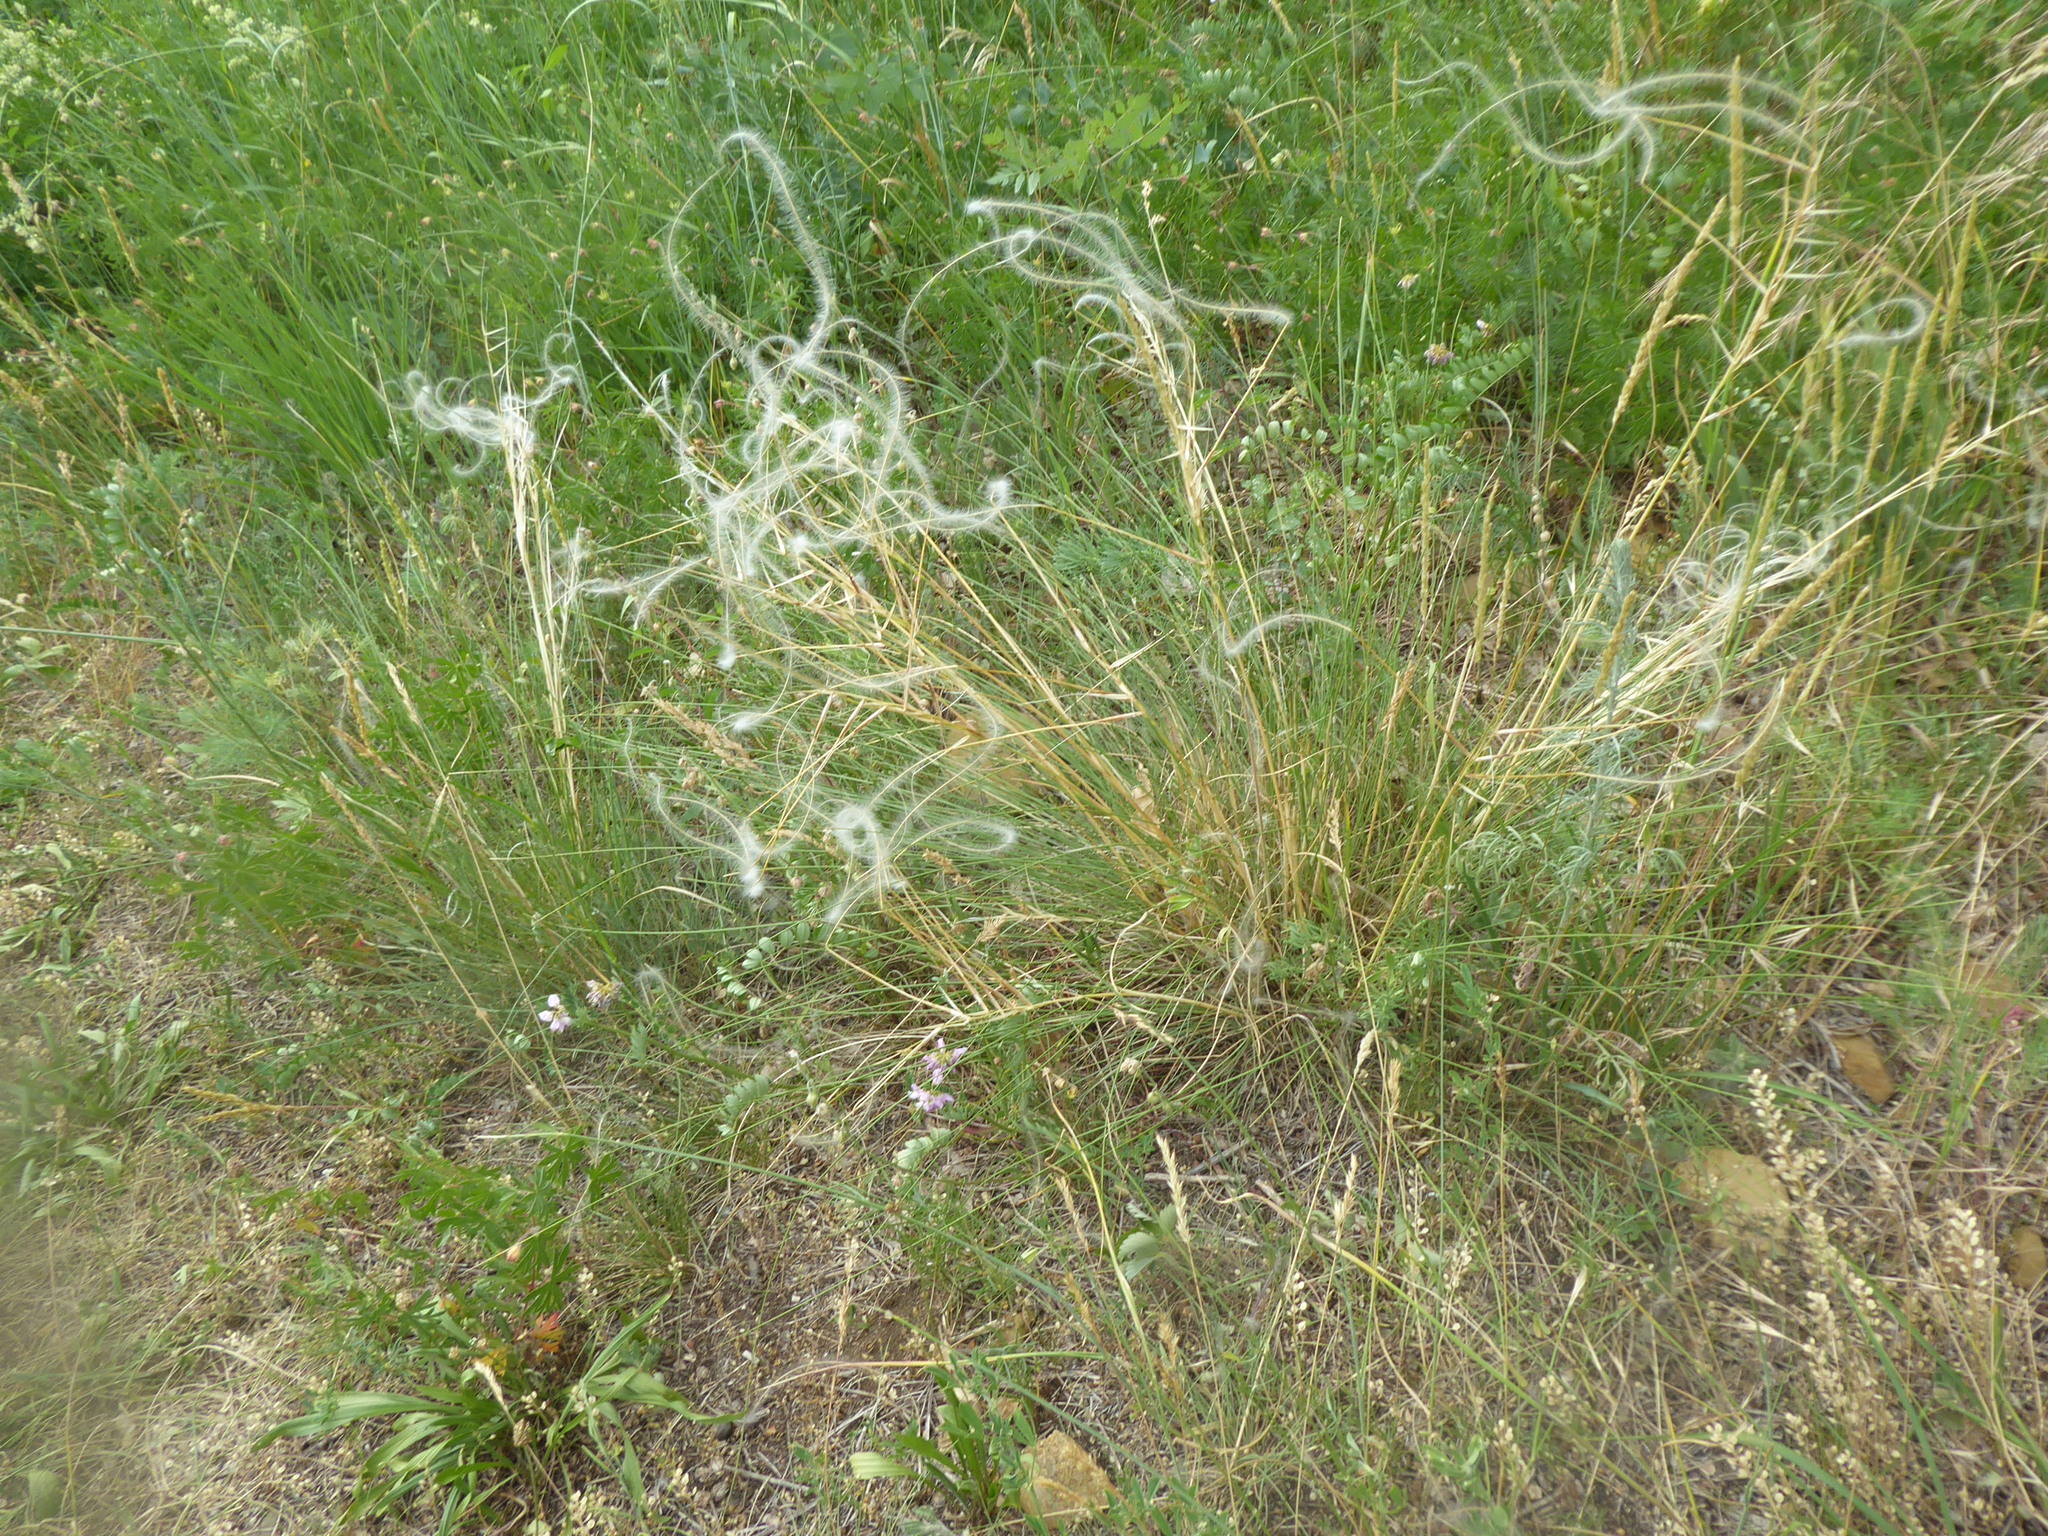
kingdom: Plantae
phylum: Tracheophyta
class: Liliopsida
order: Poales
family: Poaceae
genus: Stipa
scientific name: Stipa pennata
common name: European feather grass
